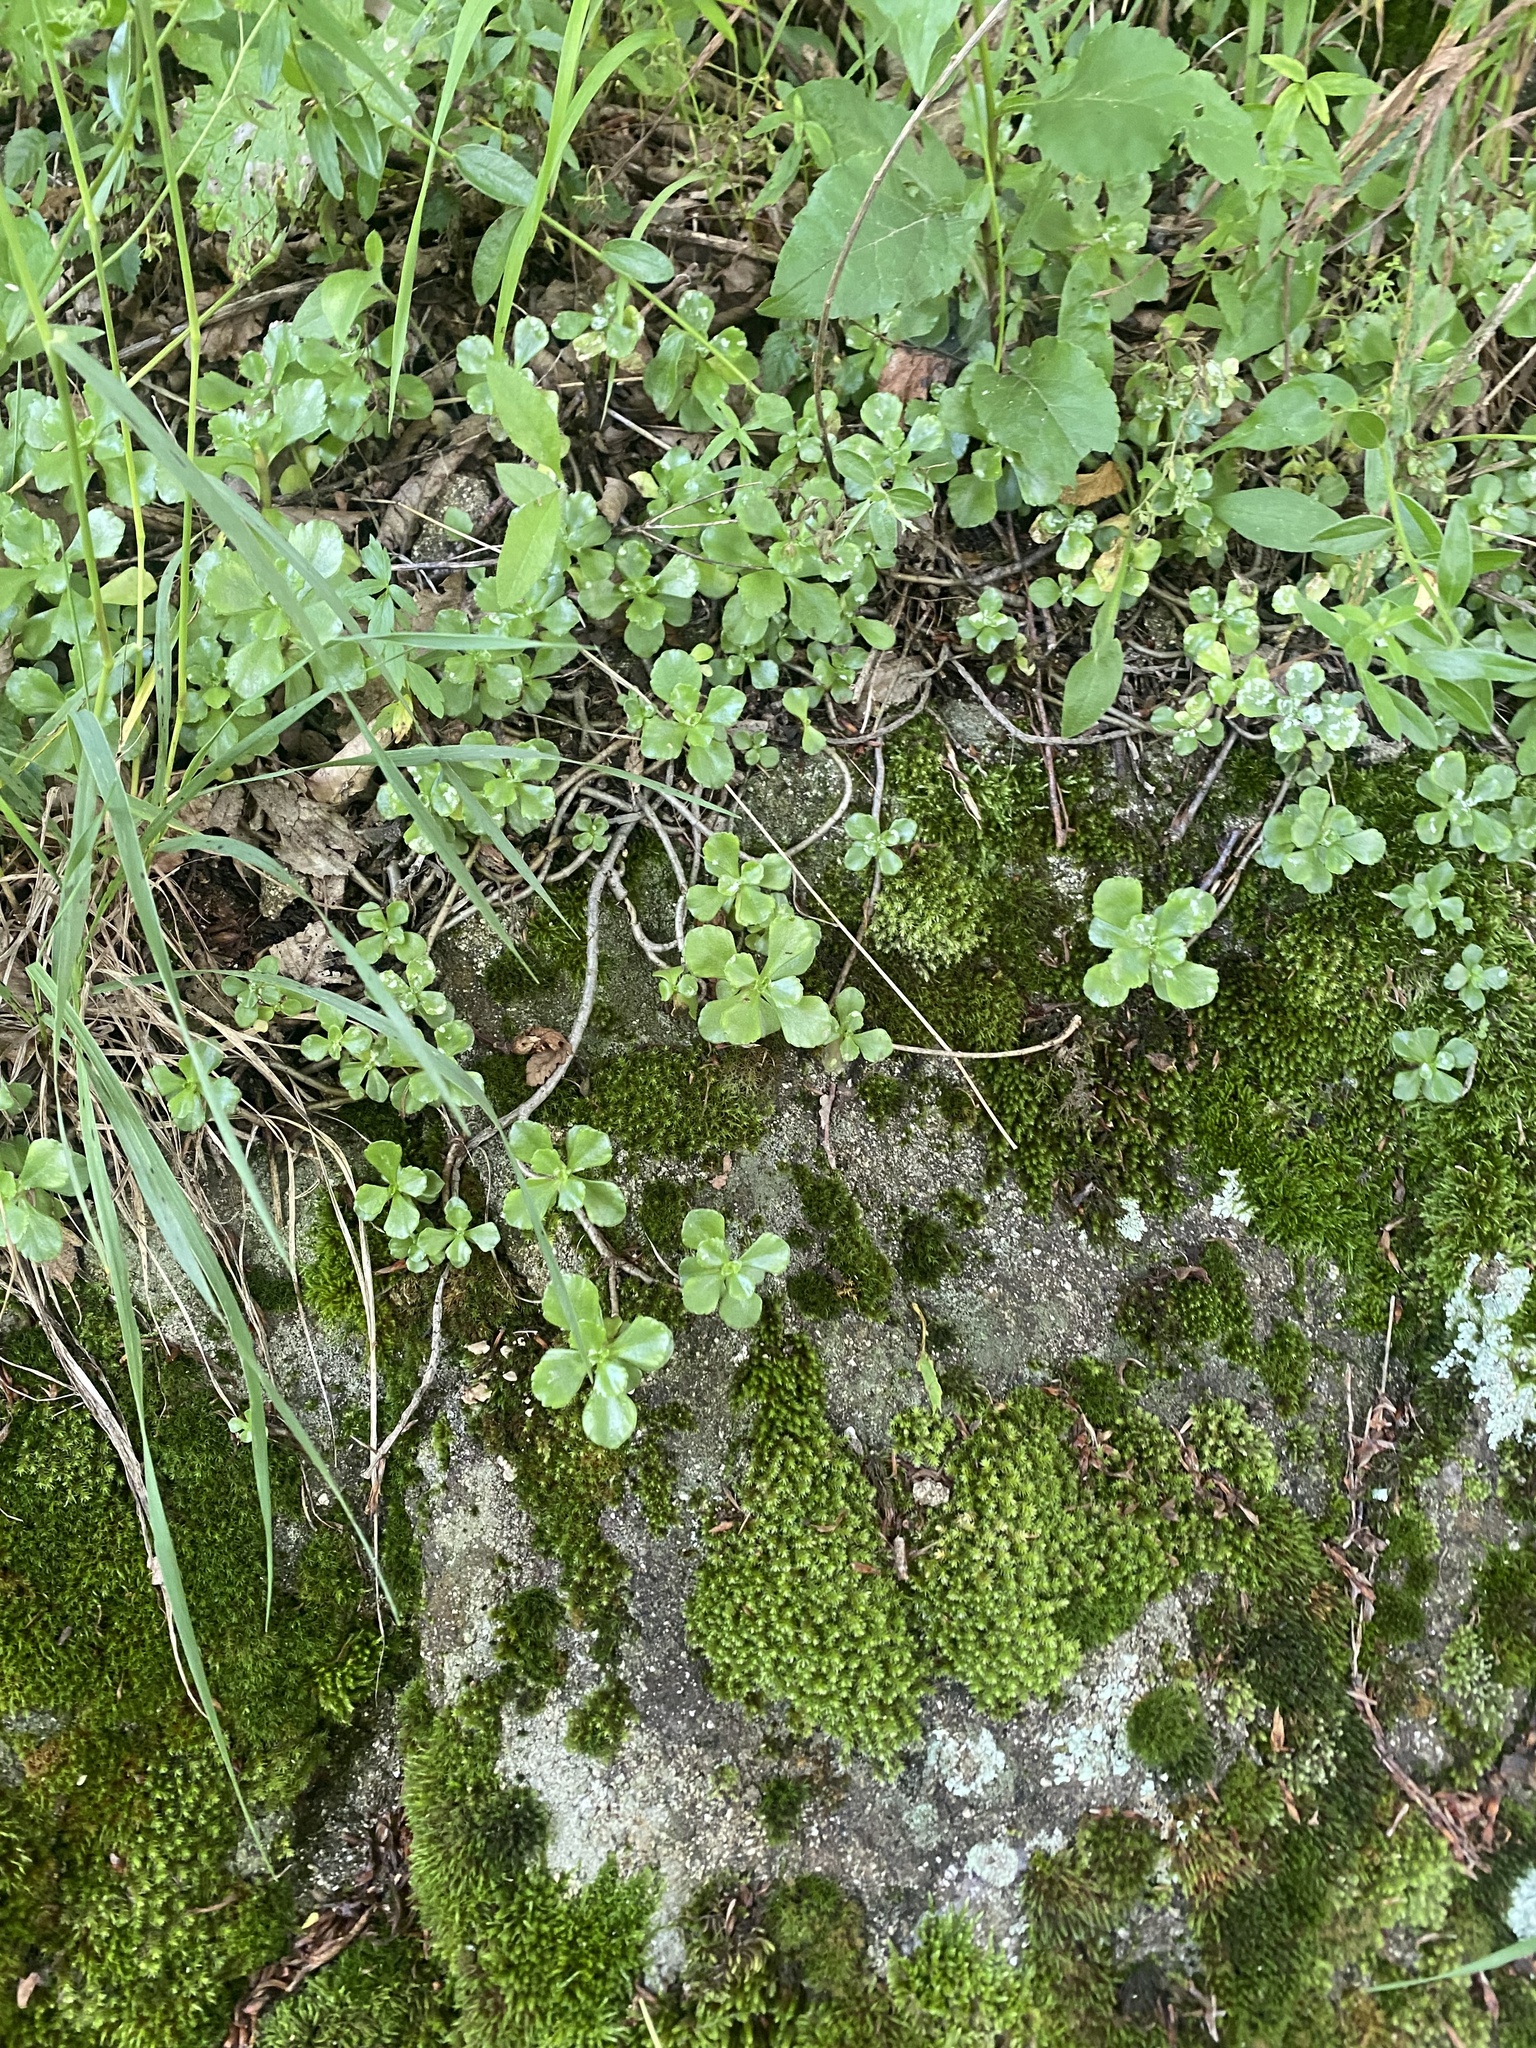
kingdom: Plantae
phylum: Tracheophyta
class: Magnoliopsida
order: Saxifragales
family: Crassulaceae
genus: Phedimus
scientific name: Phedimus spurius
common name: Caucasian stonecrop
